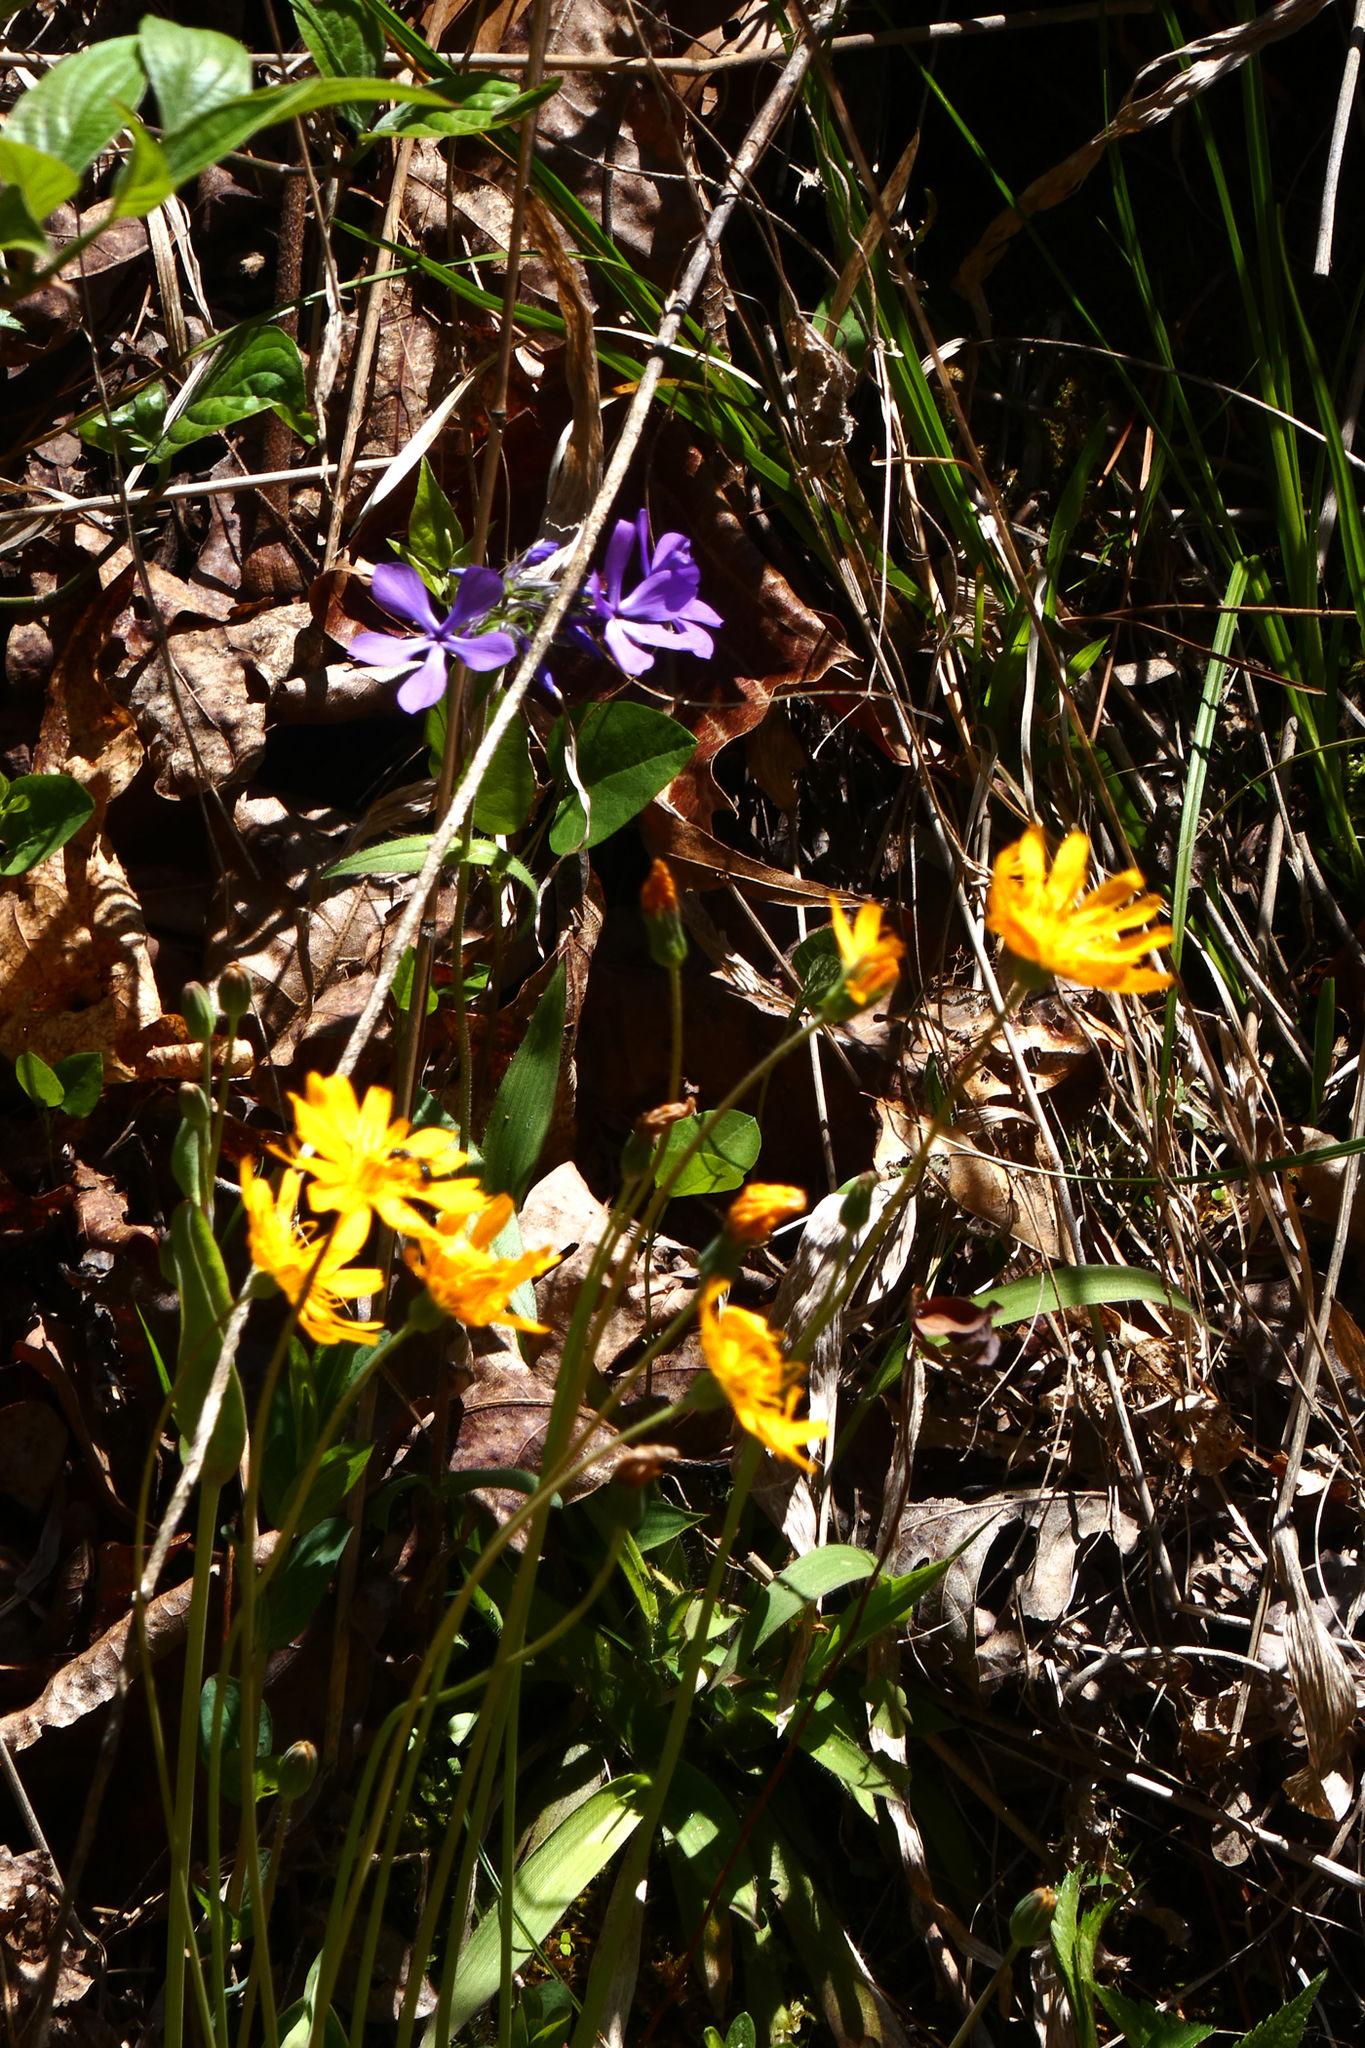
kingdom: Plantae
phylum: Tracheophyta
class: Magnoliopsida
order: Asterales
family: Asteraceae
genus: Krigia
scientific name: Krigia biflora
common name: Orange dwarf-dandelion
